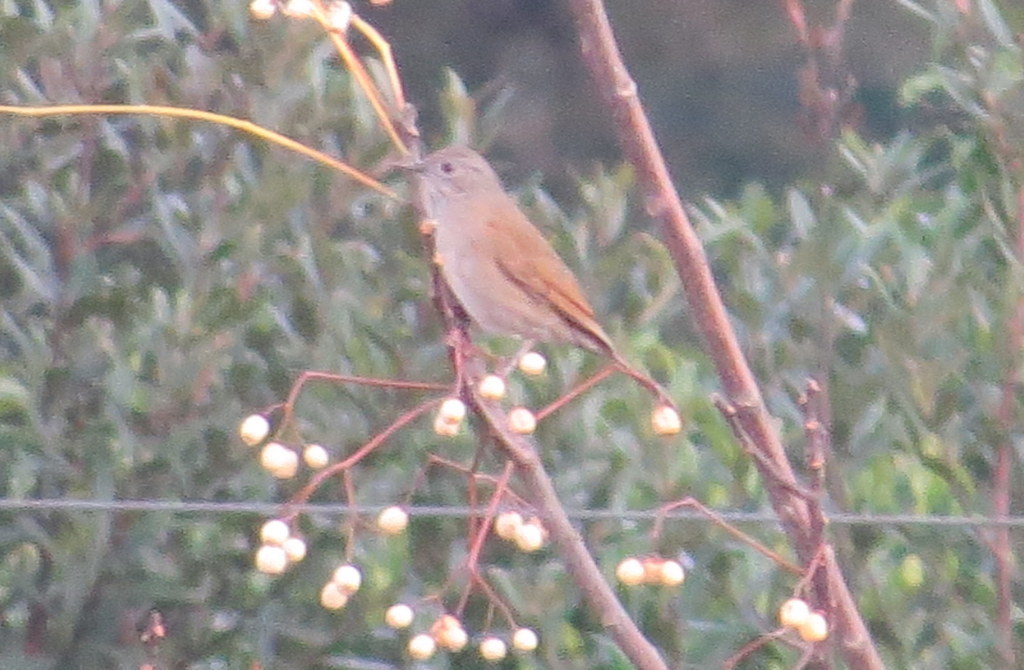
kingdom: Animalia
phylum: Chordata
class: Aves
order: Passeriformes
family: Turdidae
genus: Turdus
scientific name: Turdus leucomelas
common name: Pale-breasted thrush
